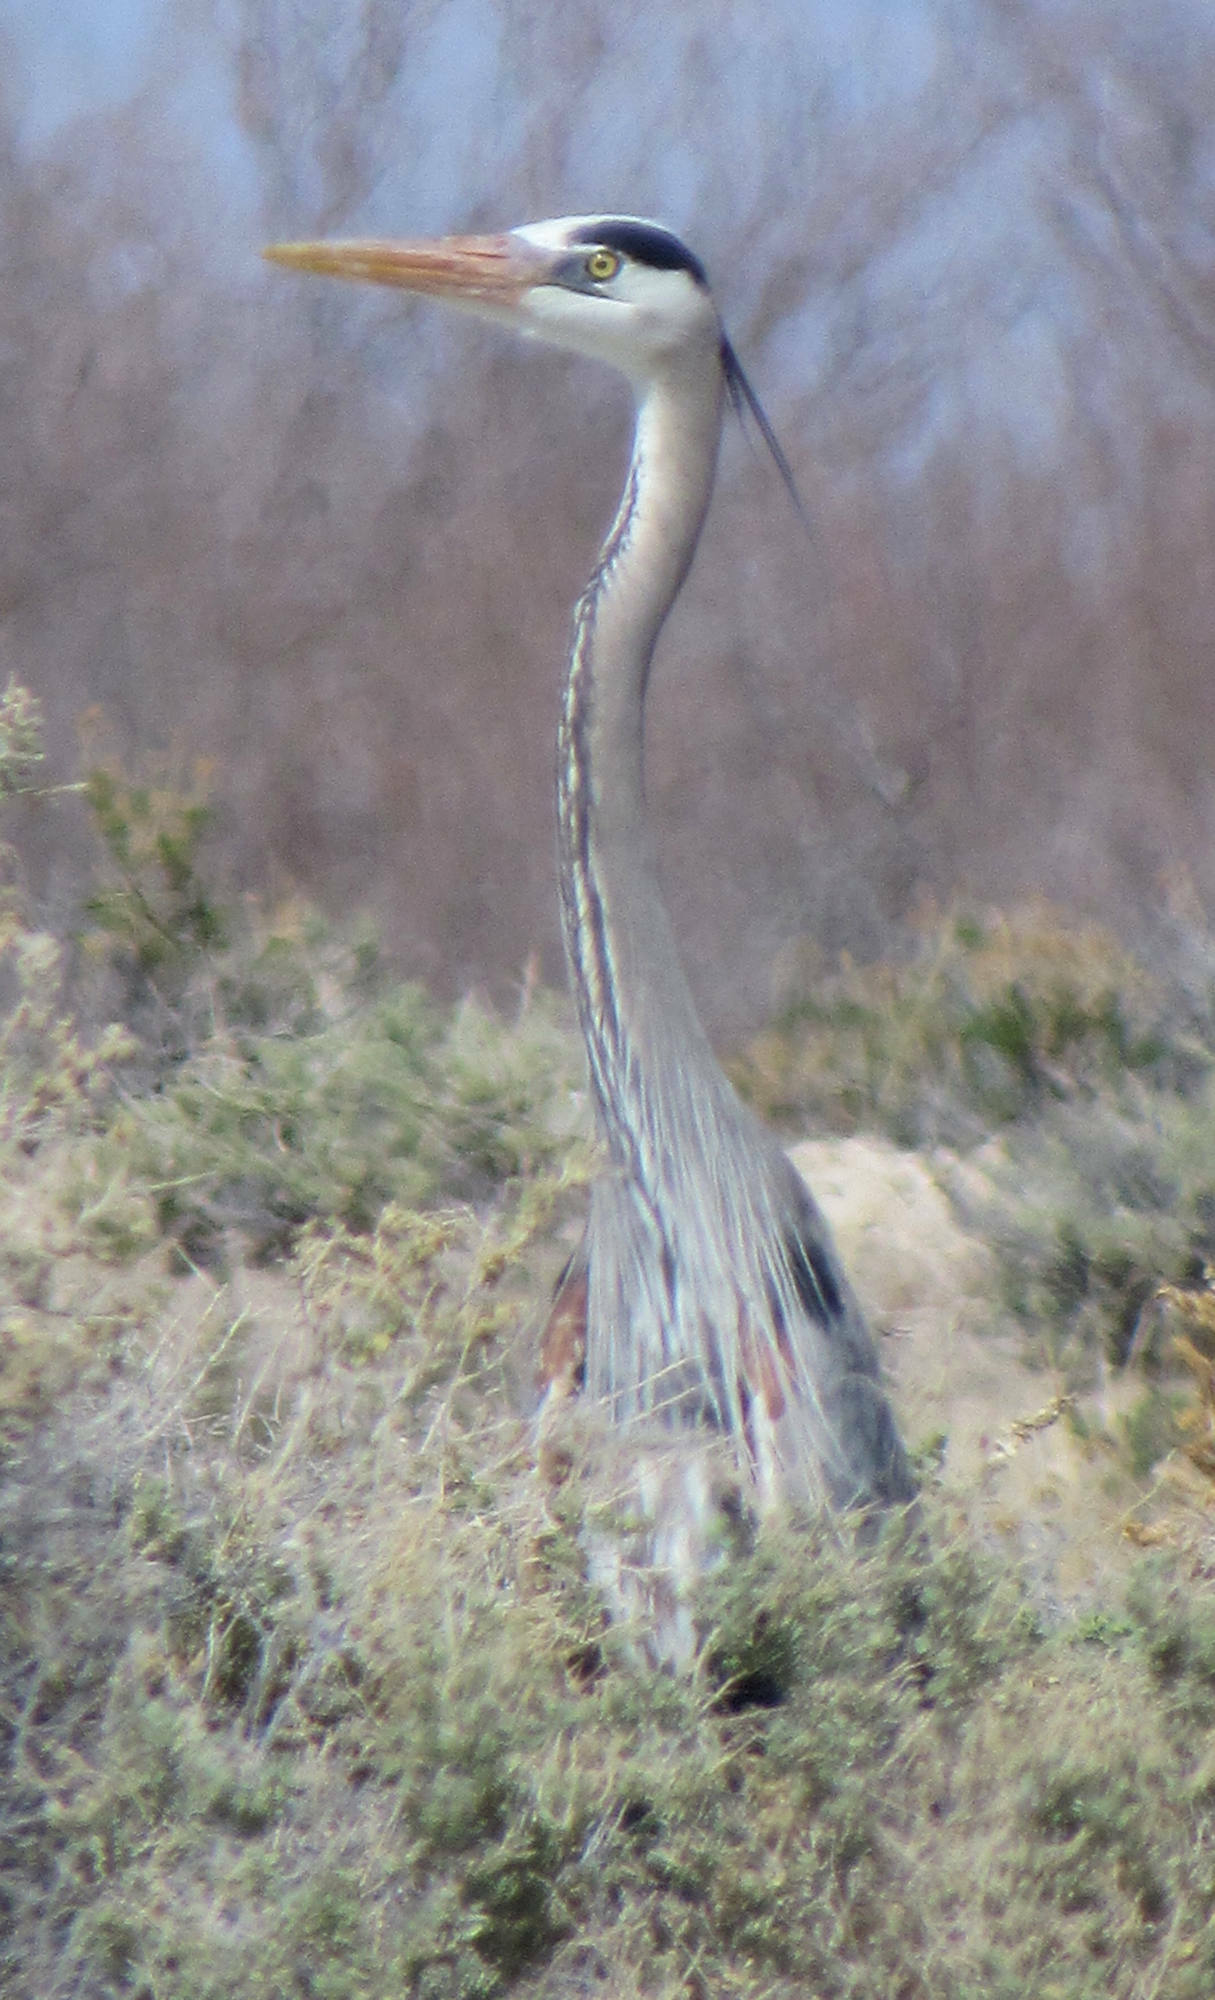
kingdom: Animalia
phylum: Chordata
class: Aves
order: Pelecaniformes
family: Ardeidae
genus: Ardea
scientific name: Ardea herodias
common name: Great blue heron
